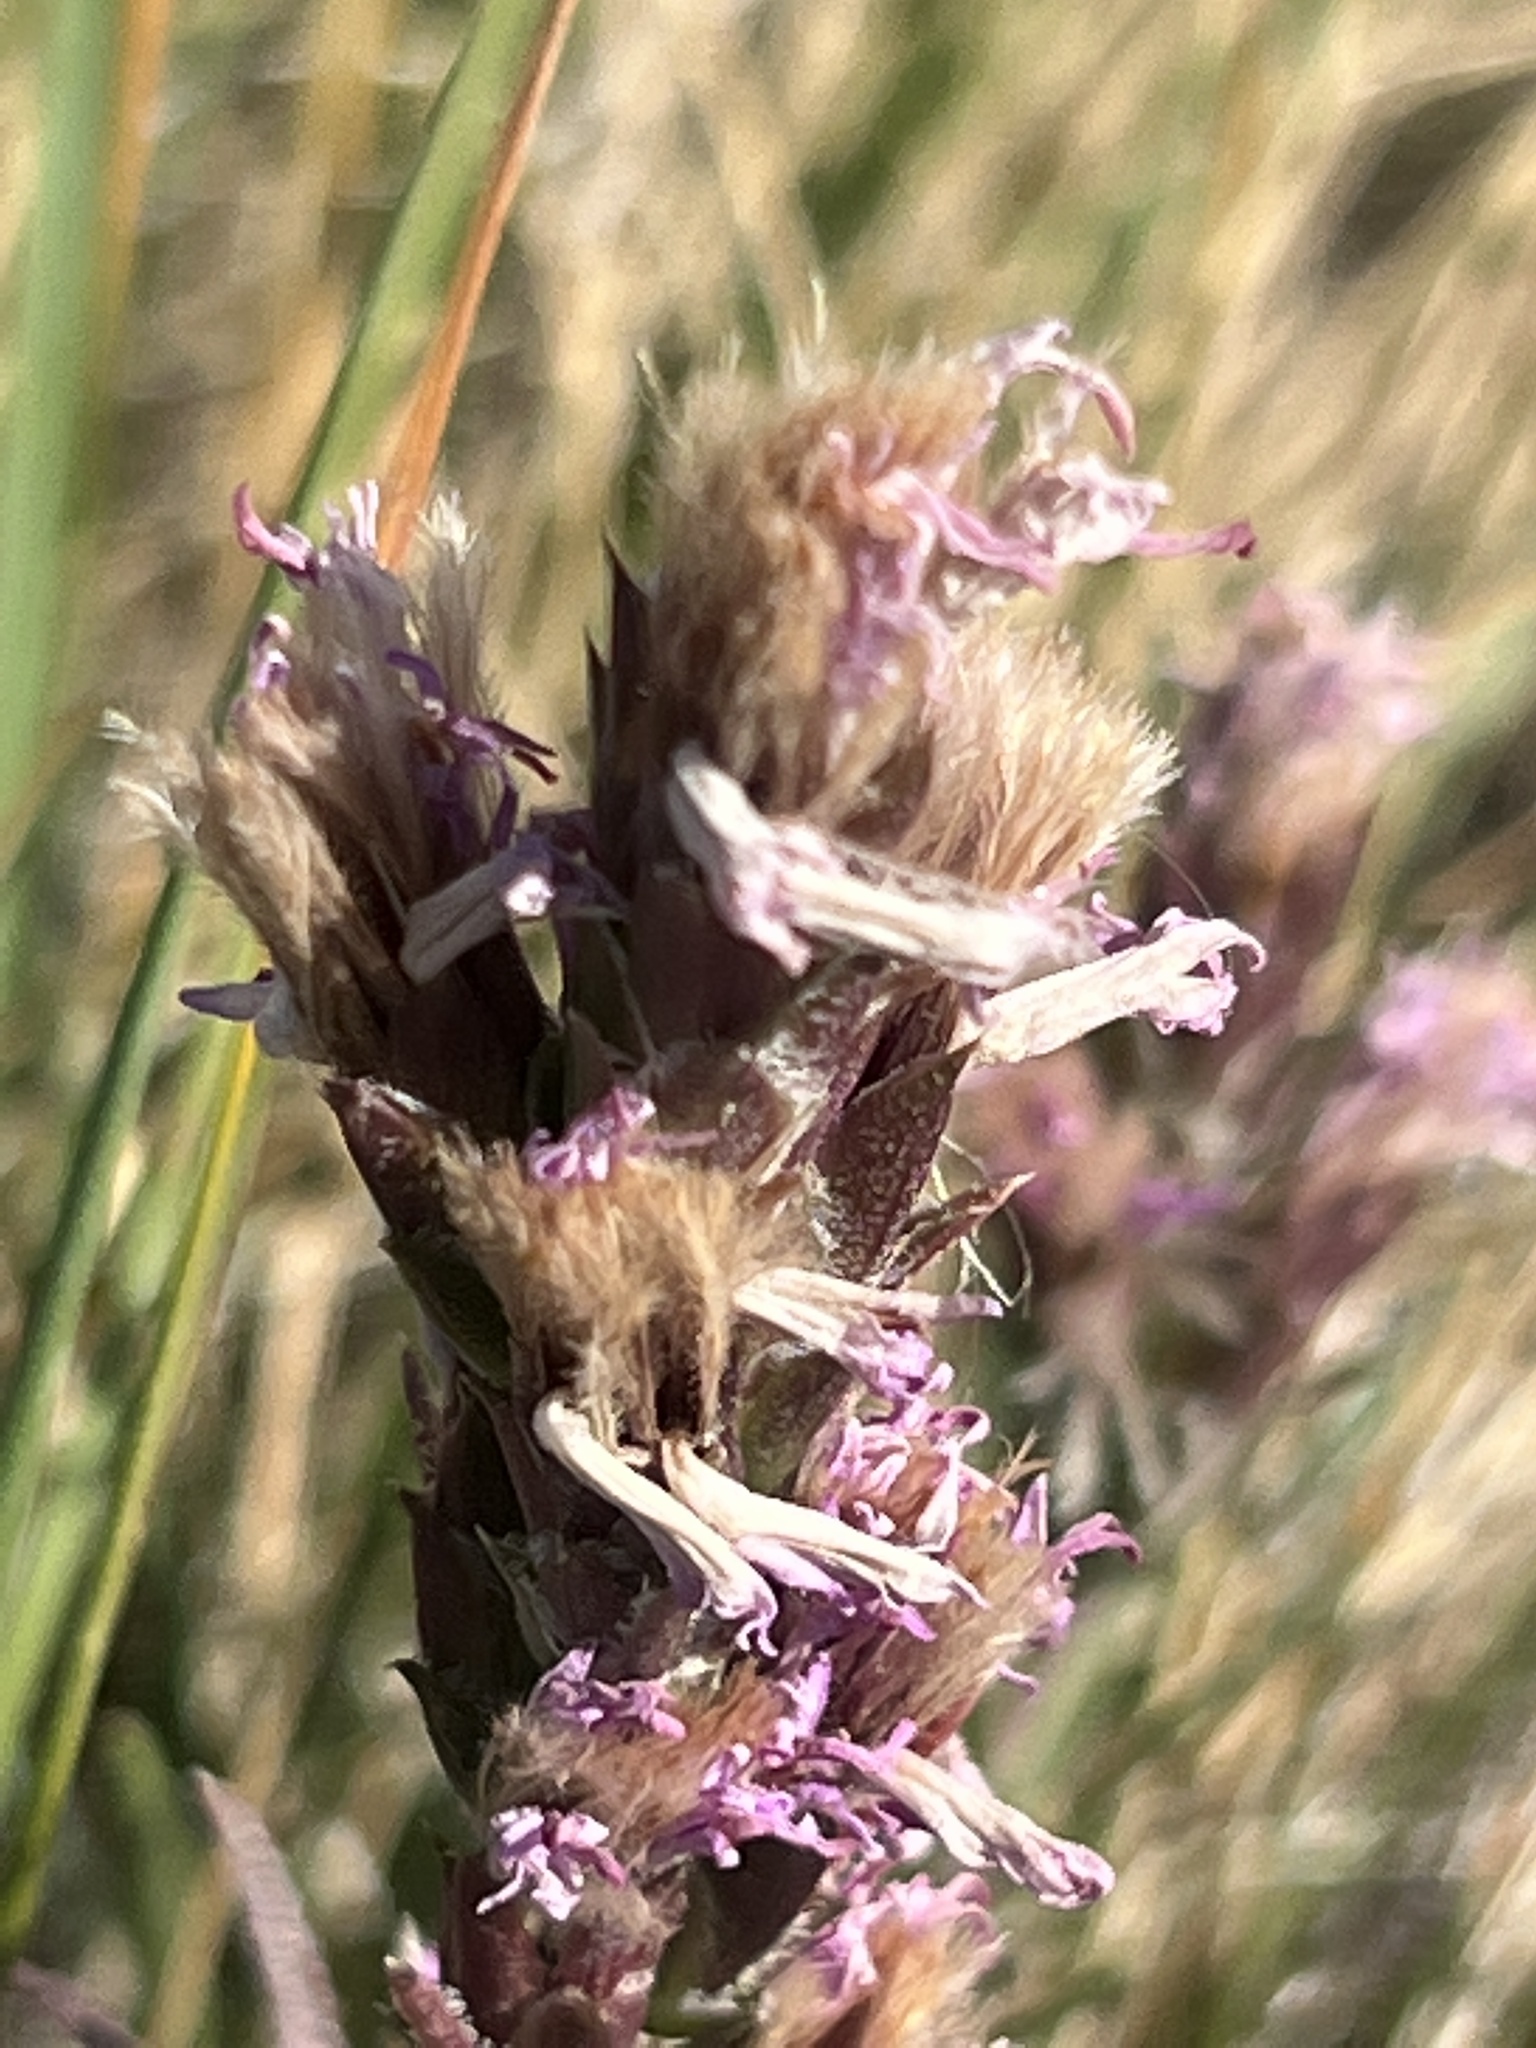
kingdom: Plantae
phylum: Tracheophyta
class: Magnoliopsida
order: Asterales
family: Asteraceae
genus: Liatris
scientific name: Liatris punctata
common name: Dotted gayfeather
